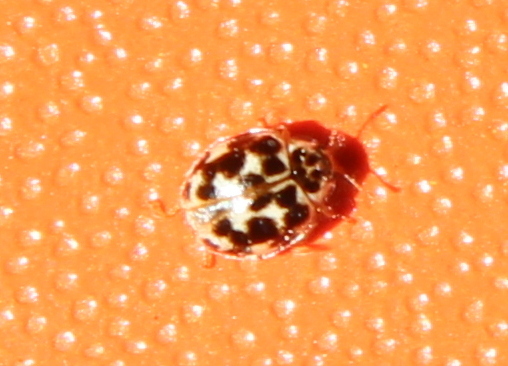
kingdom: Animalia
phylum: Arthropoda
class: Insecta
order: Coleoptera
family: Coccinellidae
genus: Psyllobora
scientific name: Psyllobora vigintimaculata
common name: Ladybird beetle
